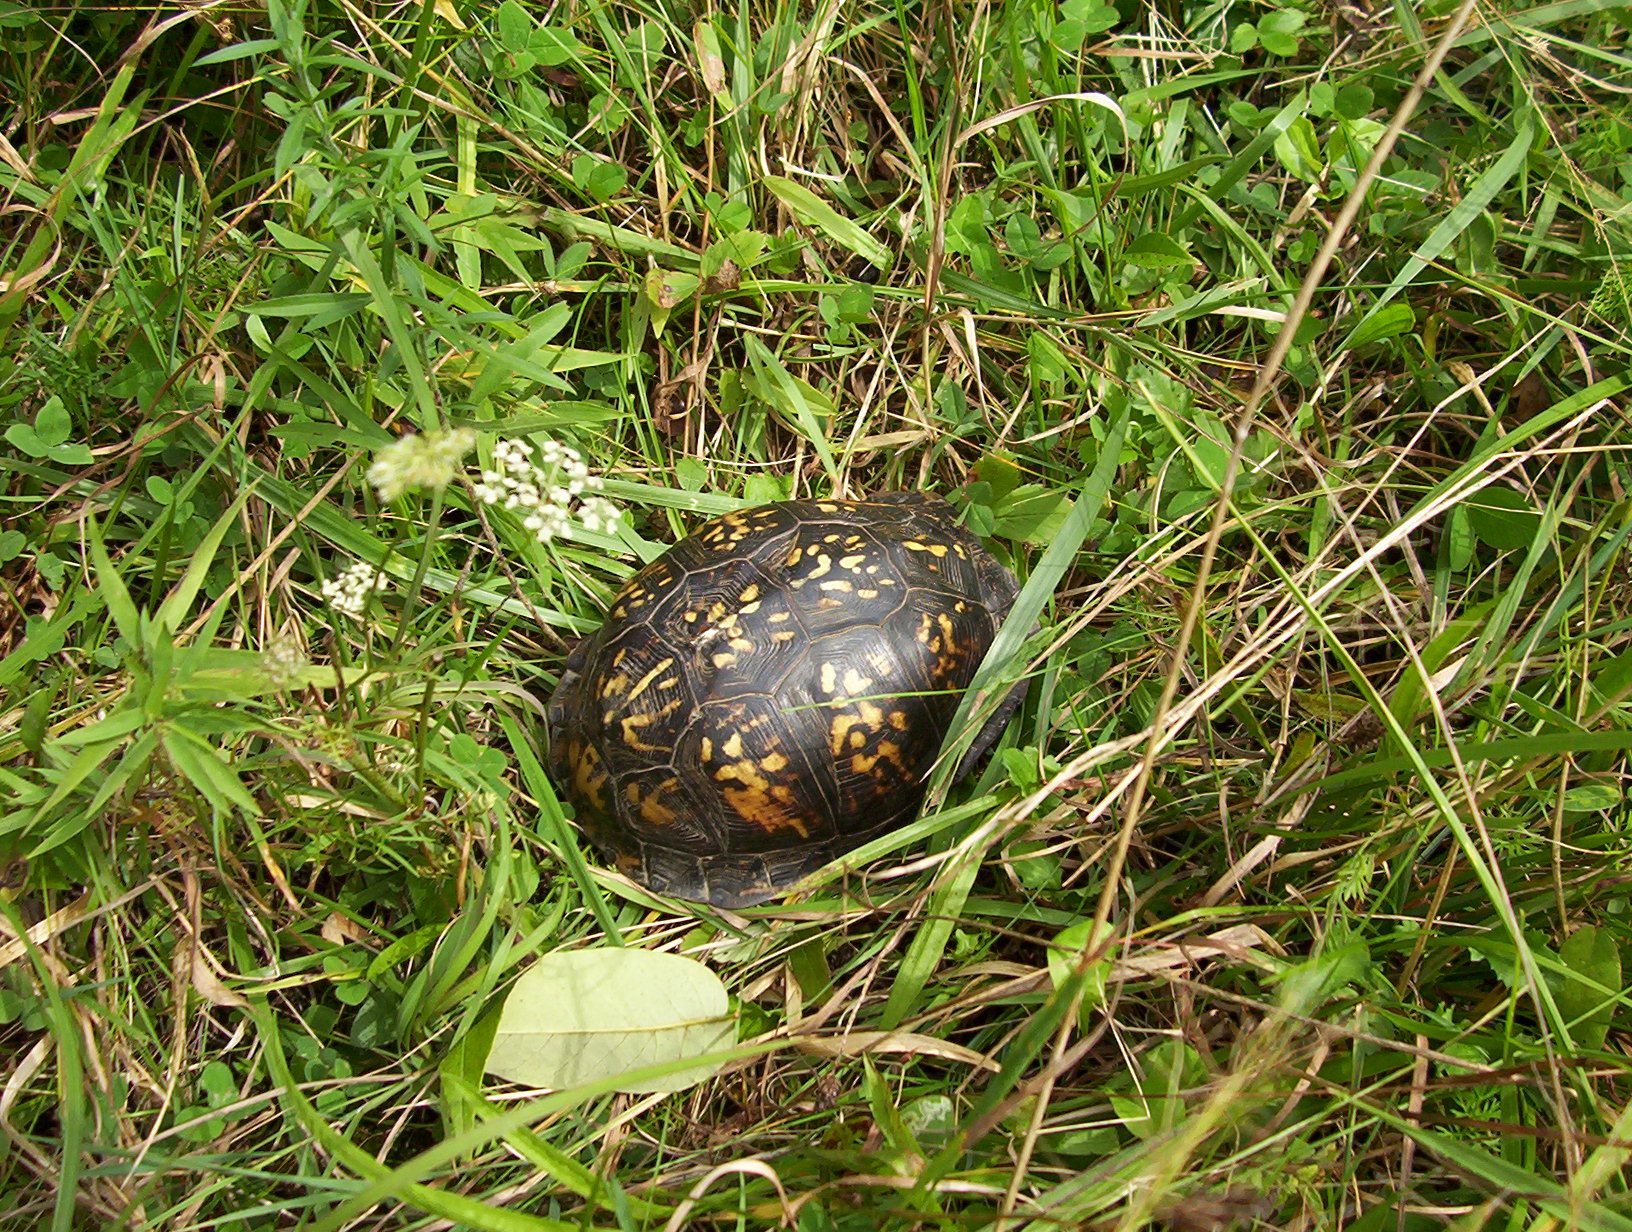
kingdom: Animalia
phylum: Chordata
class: Testudines
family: Emydidae
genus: Terrapene
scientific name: Terrapene carolina
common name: Common box turtle
